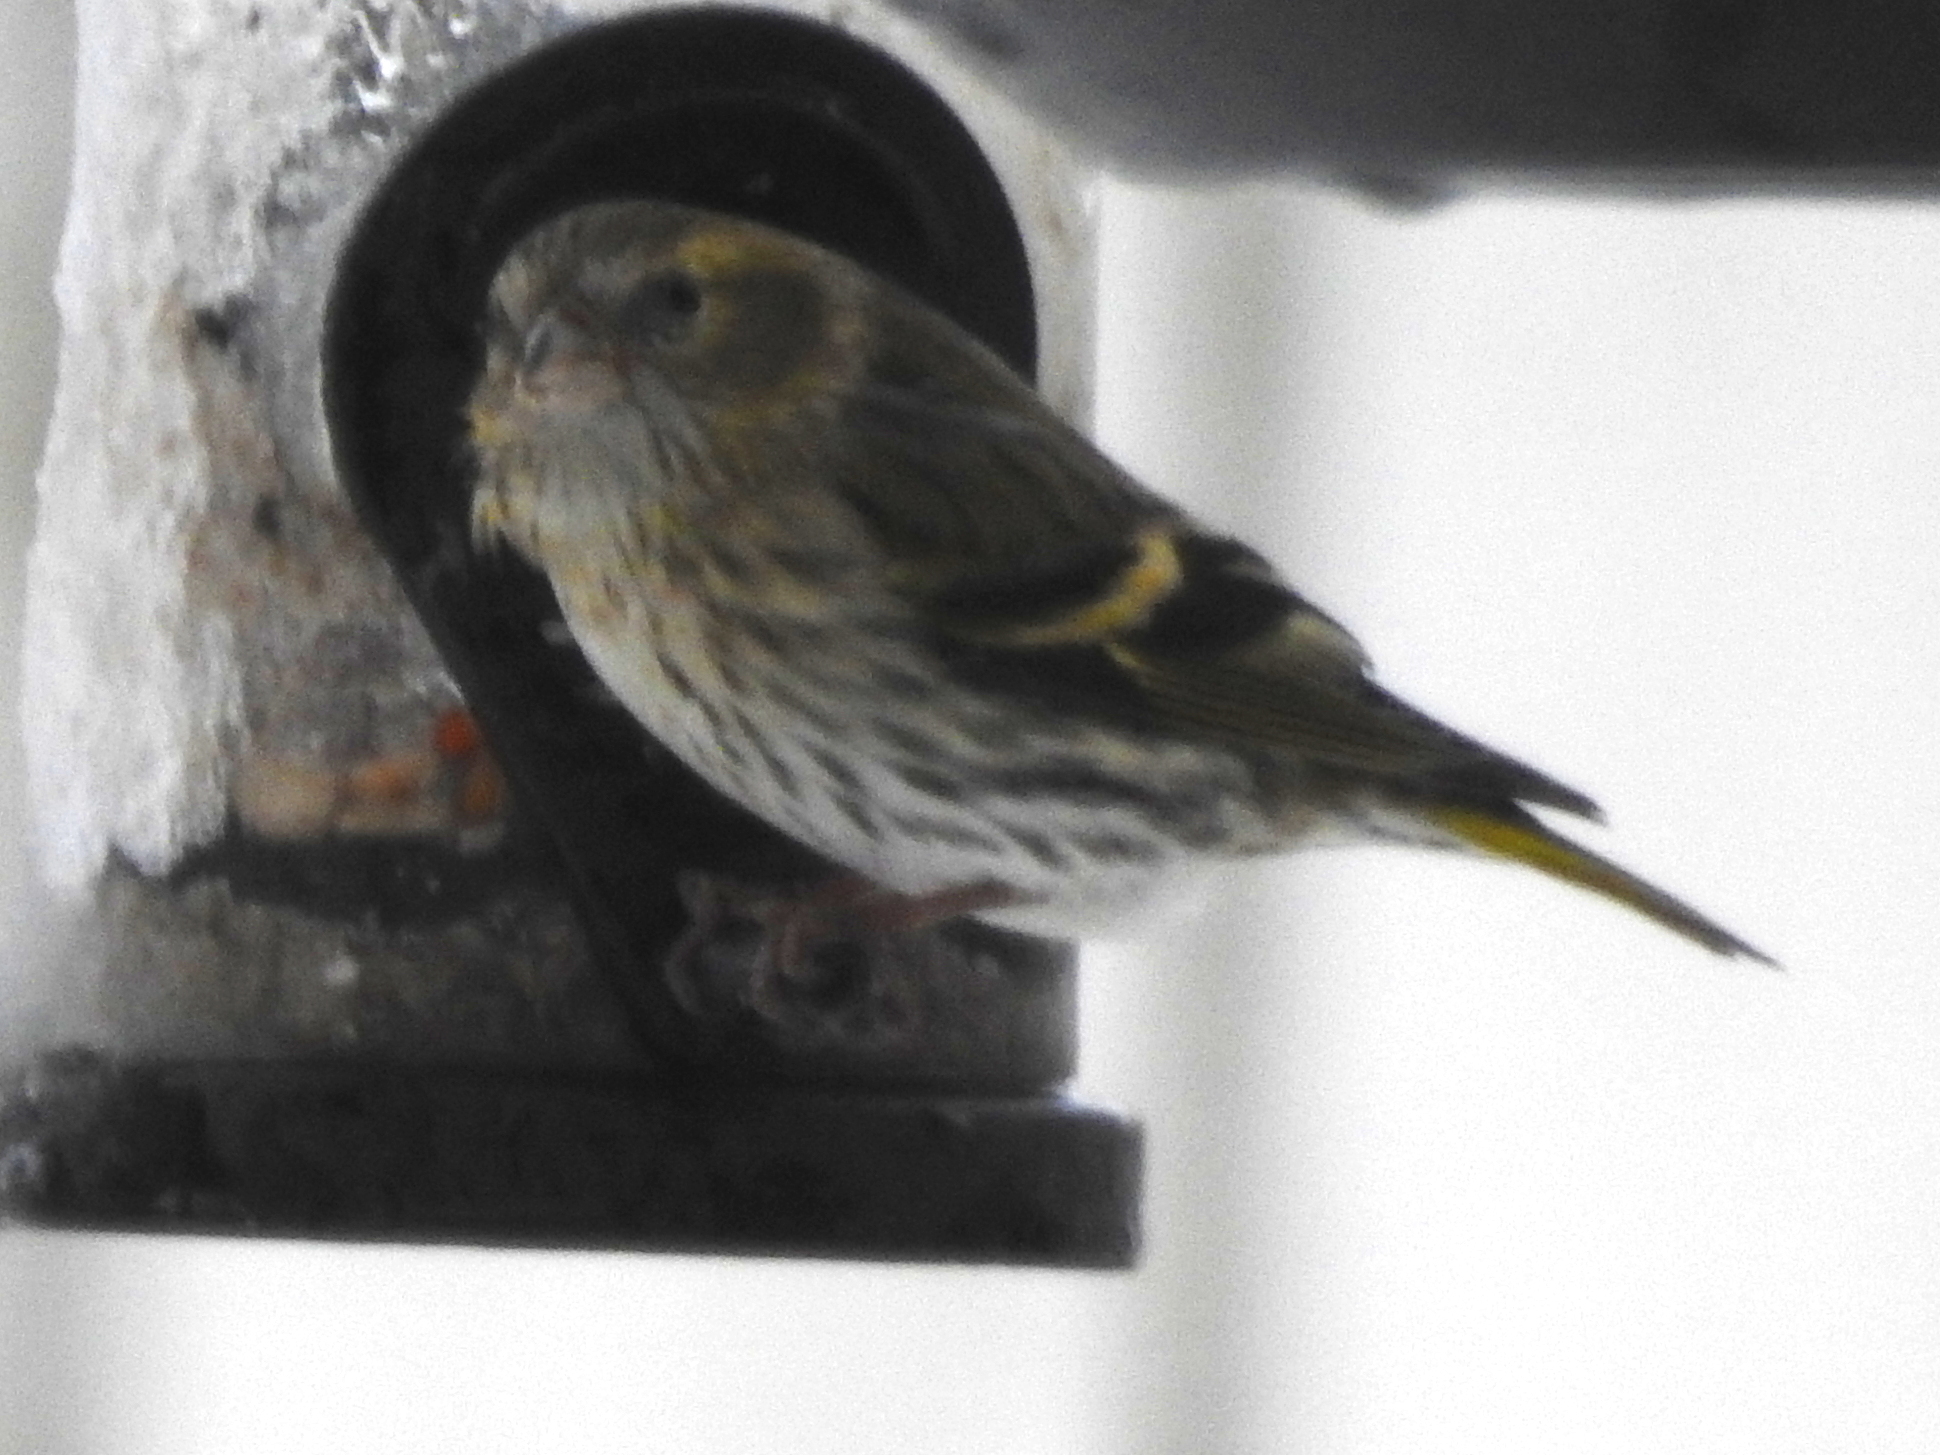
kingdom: Animalia
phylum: Chordata
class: Aves
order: Passeriformes
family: Fringillidae
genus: Spinus
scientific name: Spinus spinus
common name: Eurasian siskin
